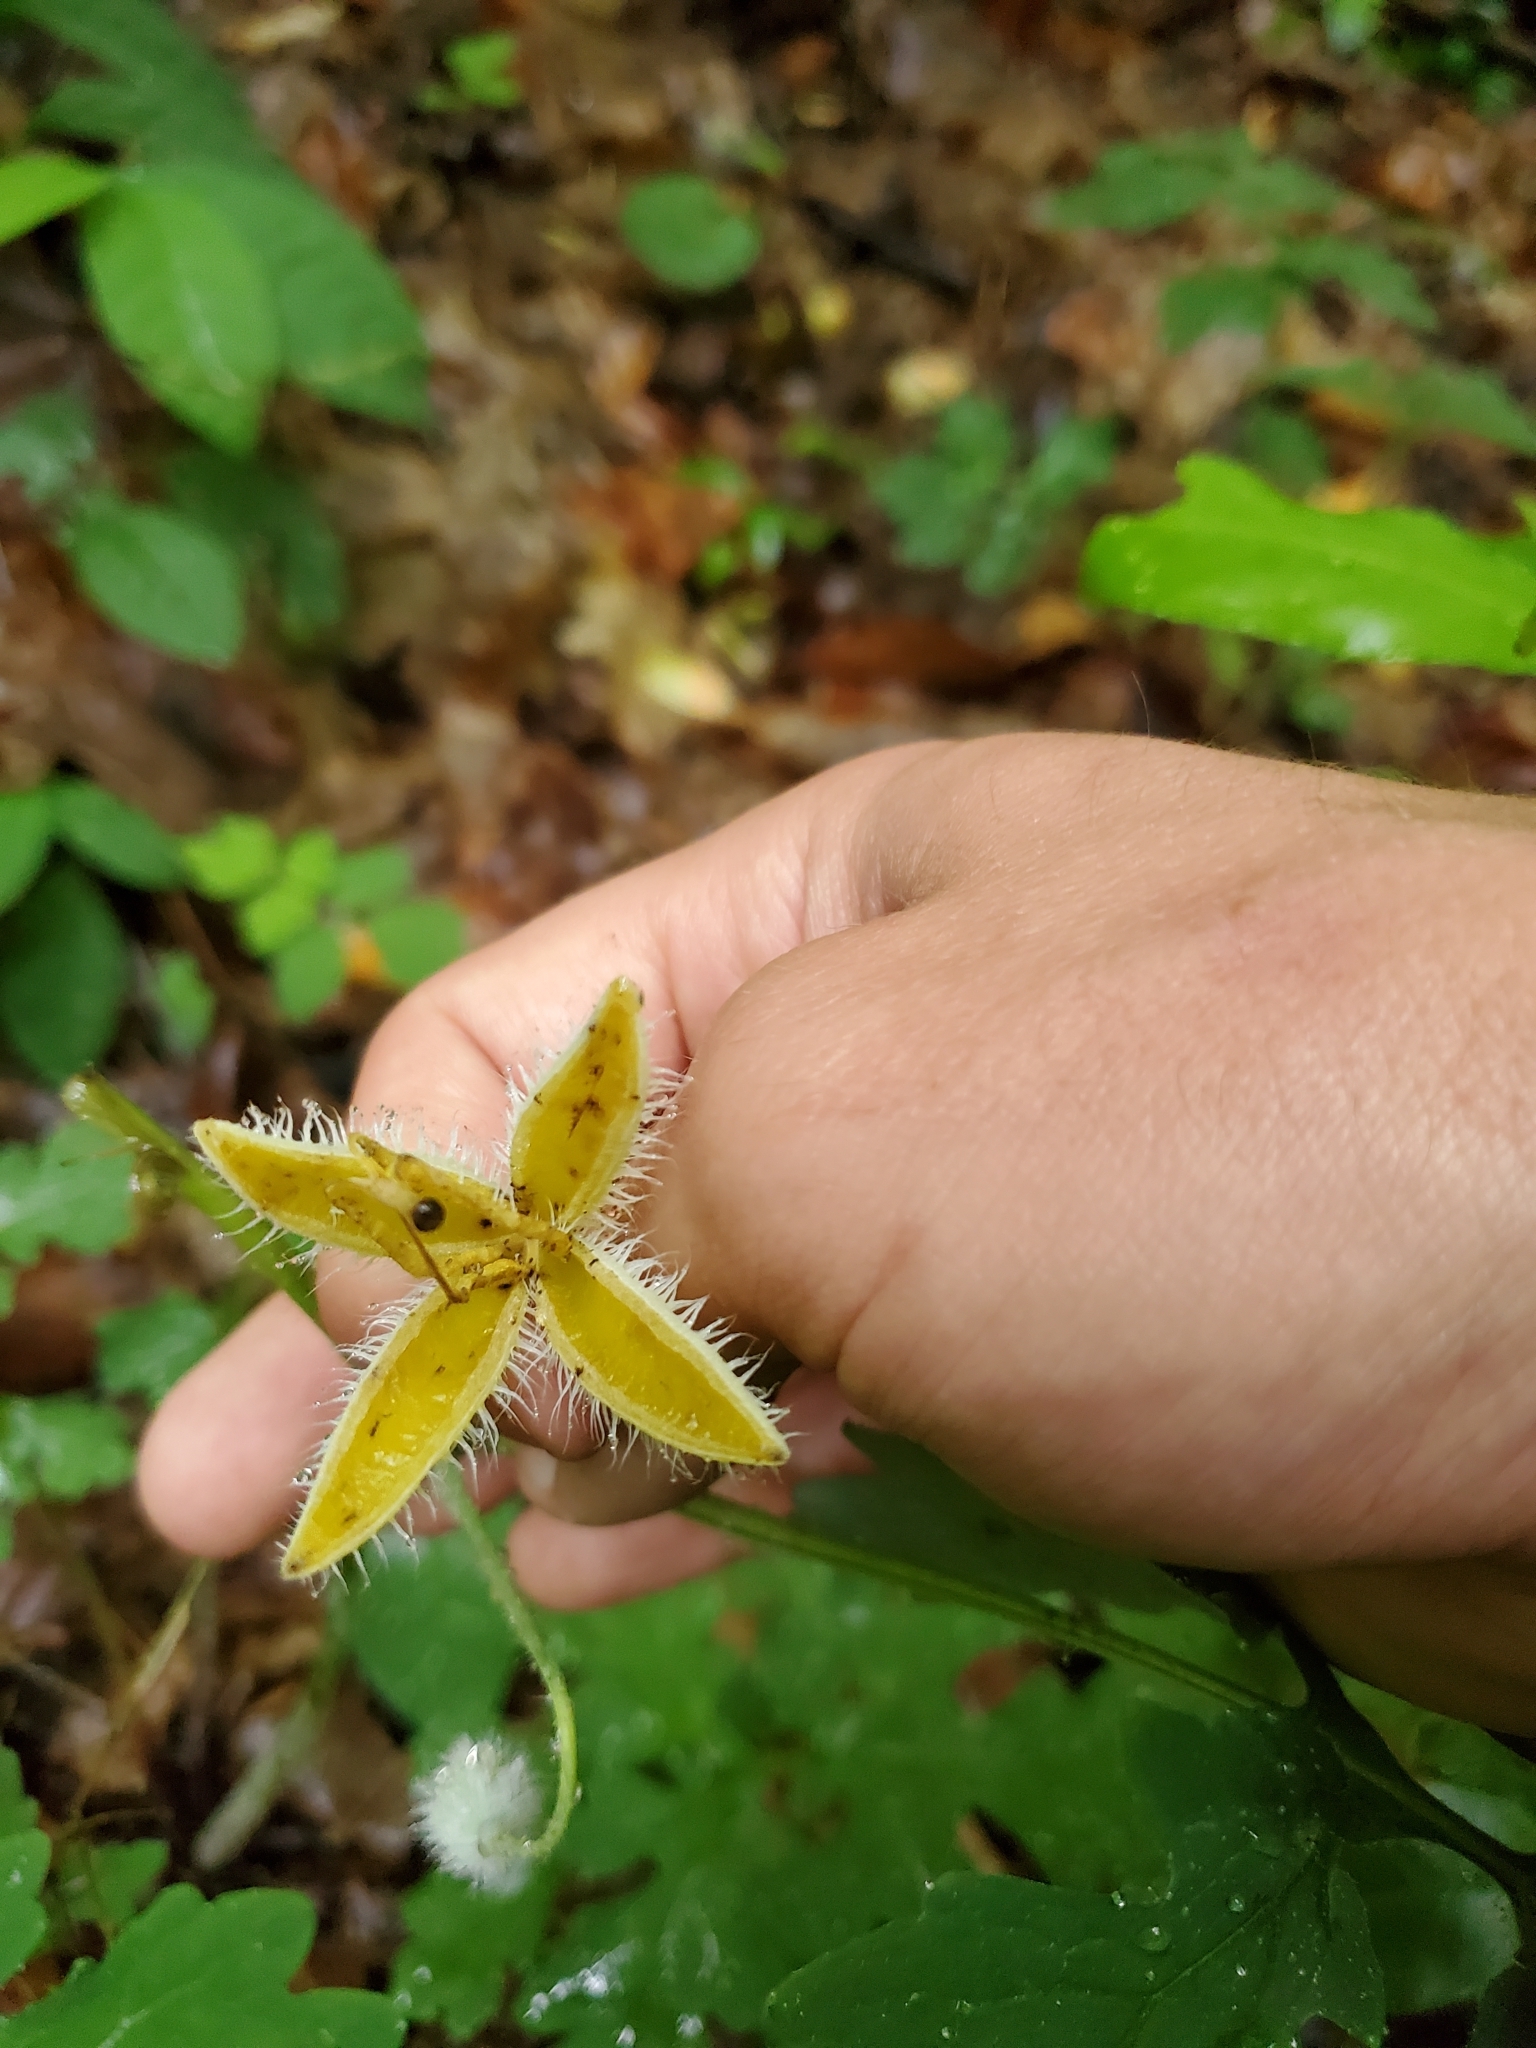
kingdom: Plantae
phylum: Tracheophyta
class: Magnoliopsida
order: Ranunculales
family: Papaveraceae
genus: Stylophorum
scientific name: Stylophorum diphyllum
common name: Celandine poppy
